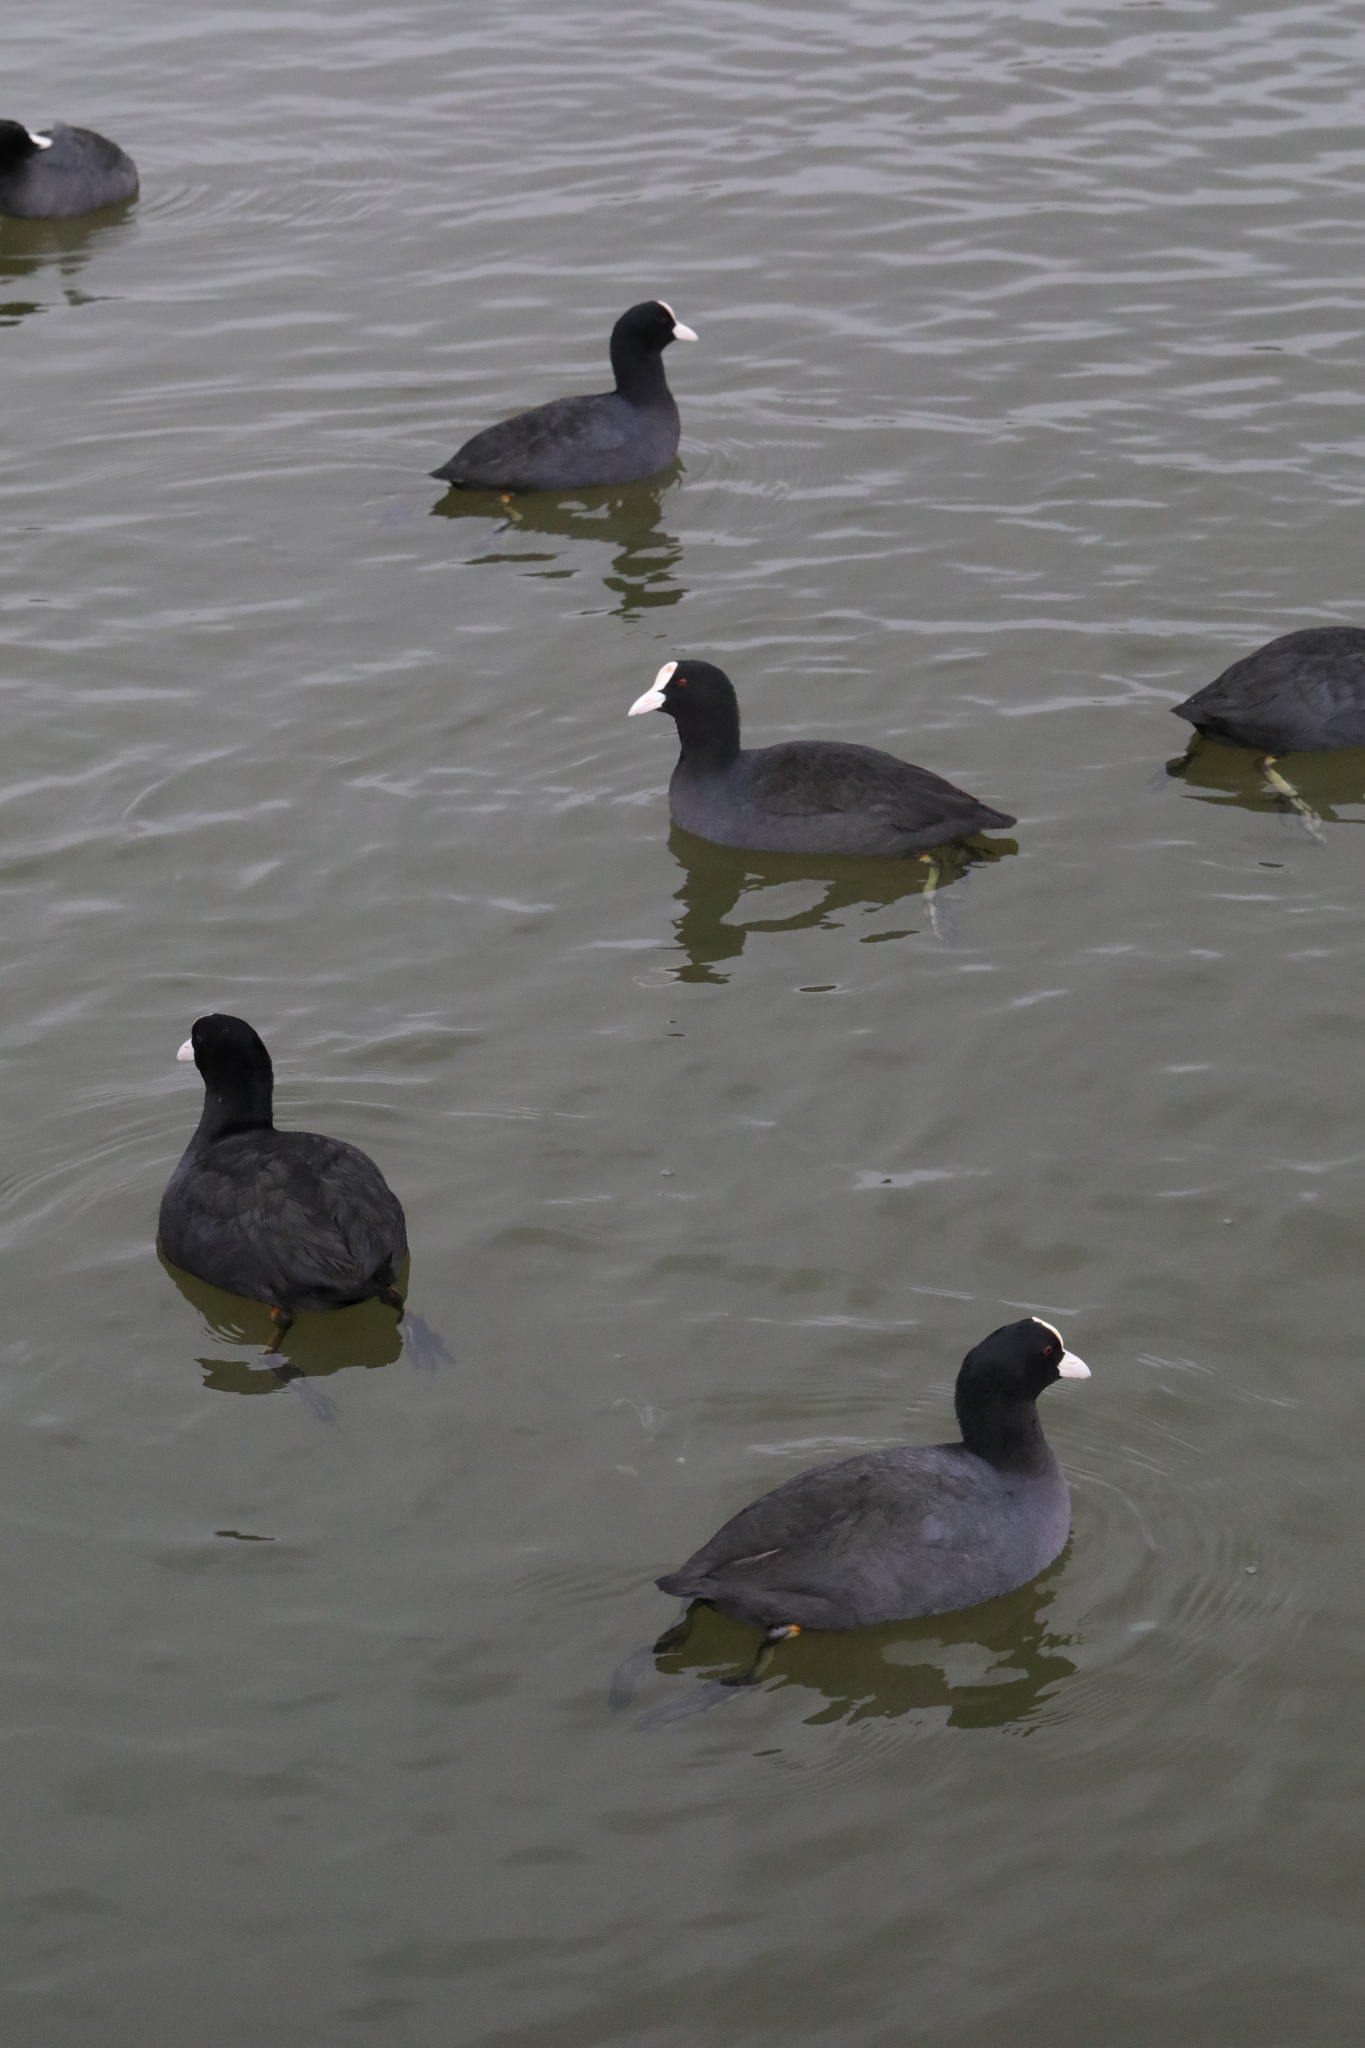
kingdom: Animalia
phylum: Chordata
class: Aves
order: Gruiformes
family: Rallidae
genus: Fulica
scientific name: Fulica atra
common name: Eurasian coot
